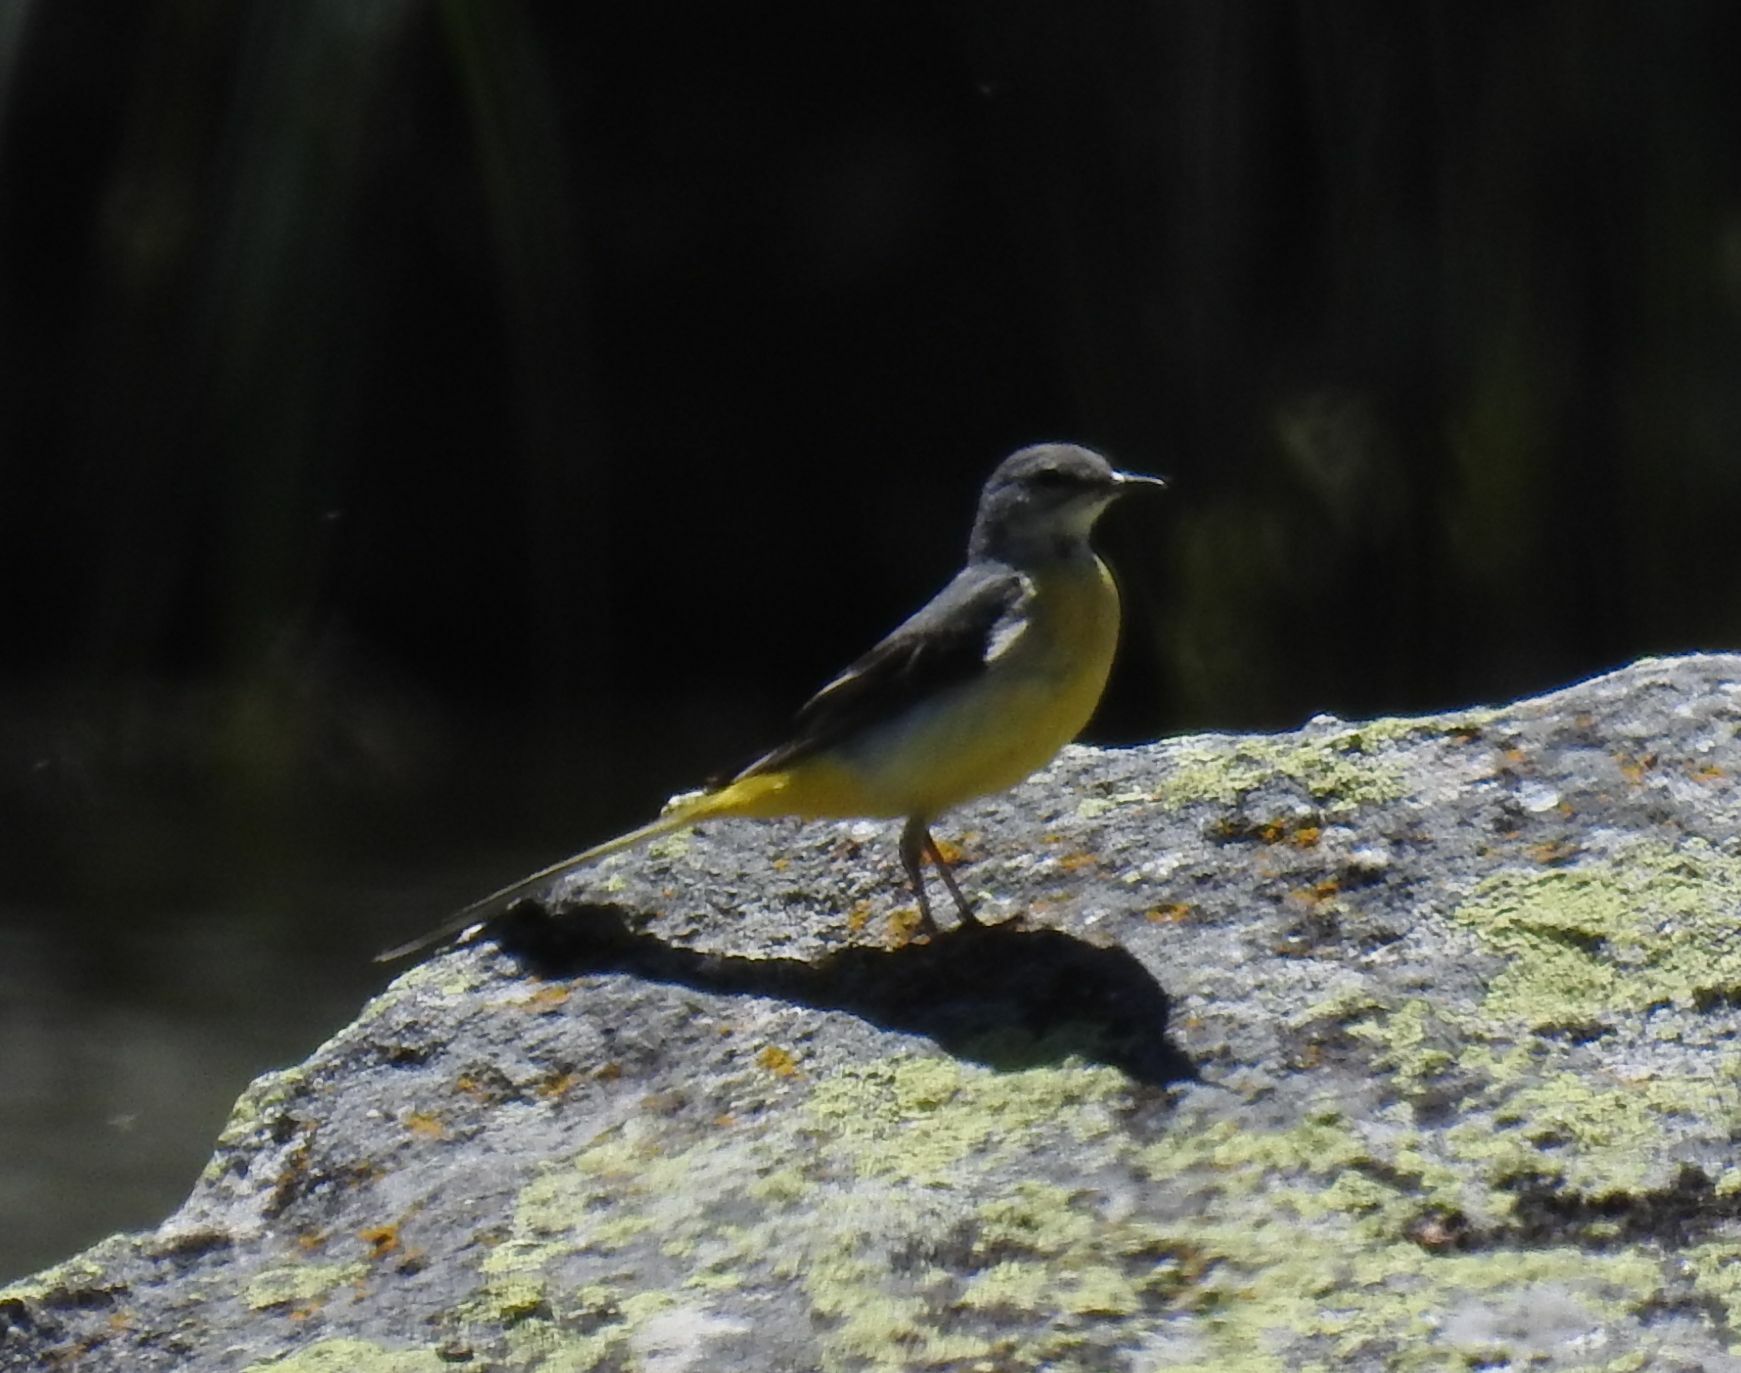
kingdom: Animalia
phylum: Chordata
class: Aves
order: Passeriformes
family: Motacillidae
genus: Motacilla
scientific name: Motacilla cinerea
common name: Grey wagtail
